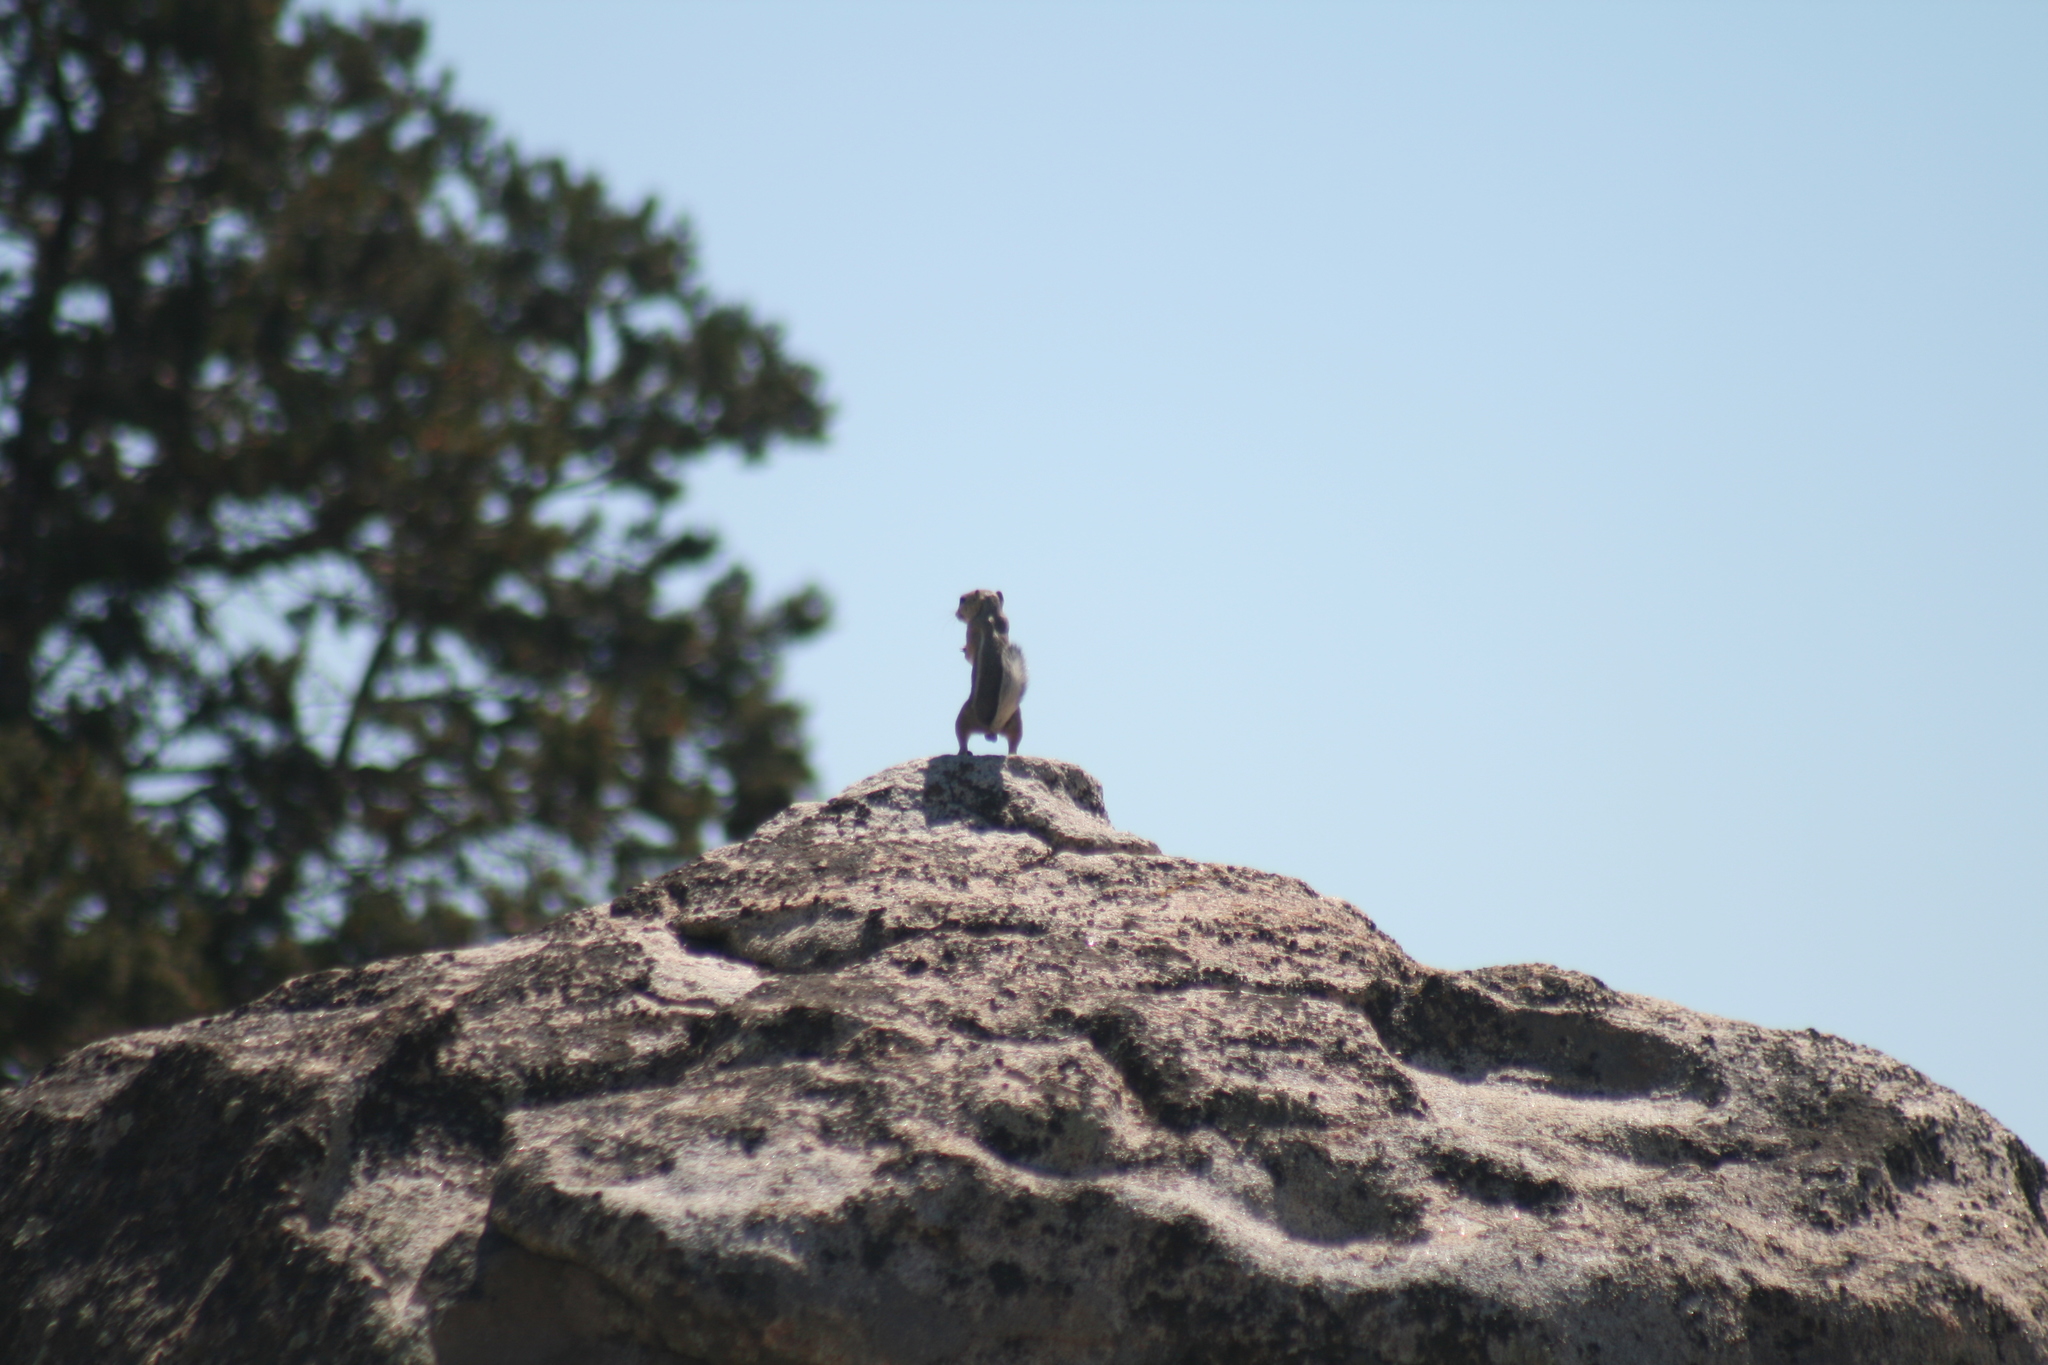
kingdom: Animalia
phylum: Chordata
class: Mammalia
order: Rodentia
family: Sciuridae
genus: Ammospermophilus
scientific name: Ammospermophilus leucurus
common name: White-tailed antelope squirrel
